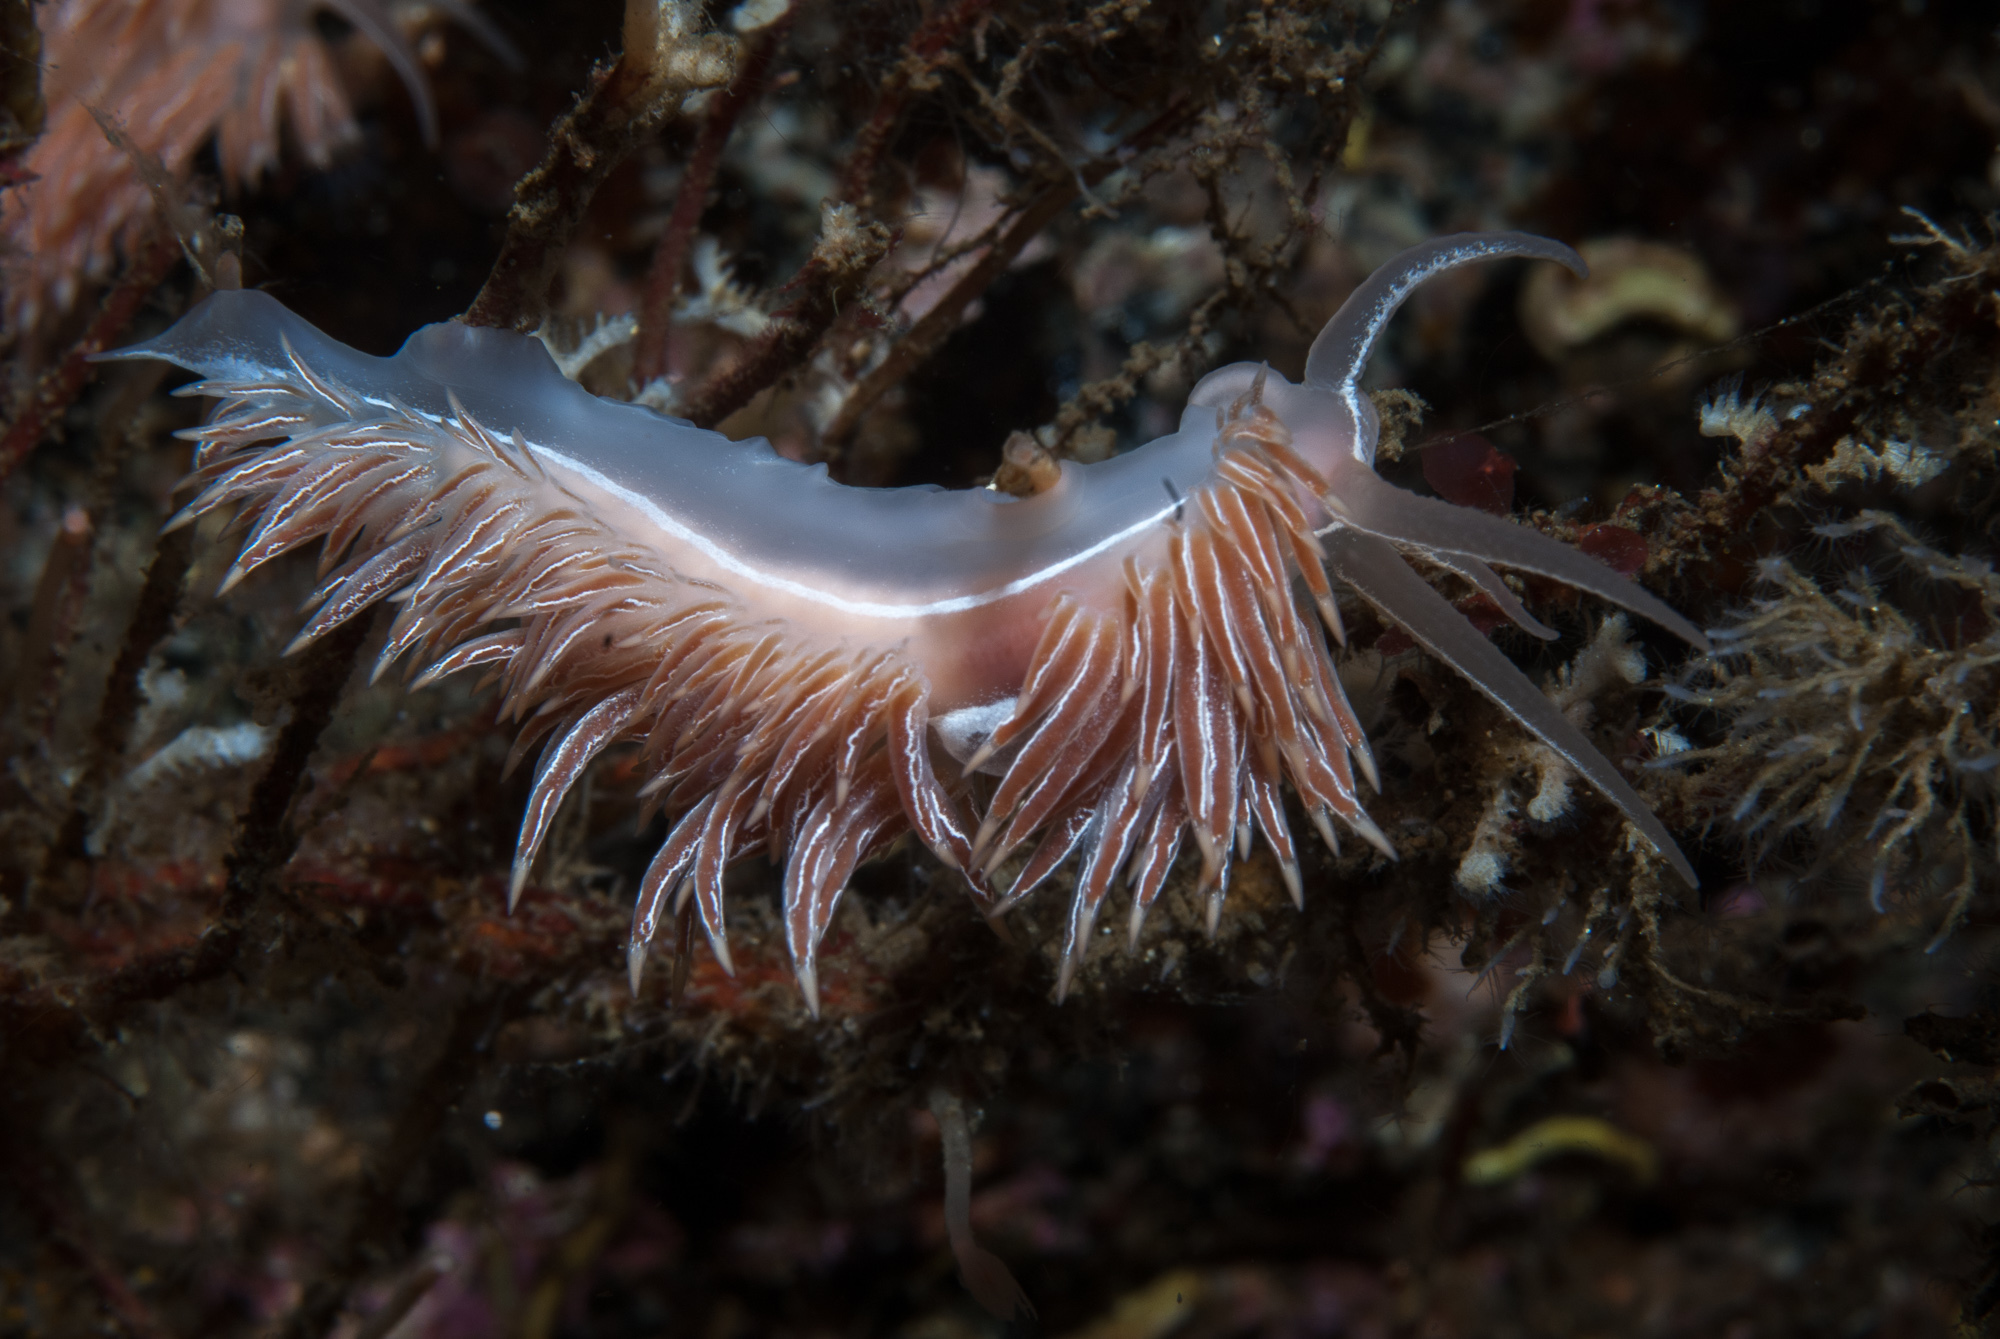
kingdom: Animalia
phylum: Mollusca
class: Gastropoda
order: Nudibranchia
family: Coryphellidae
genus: Coryphella
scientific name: Coryphella chriskaugei
